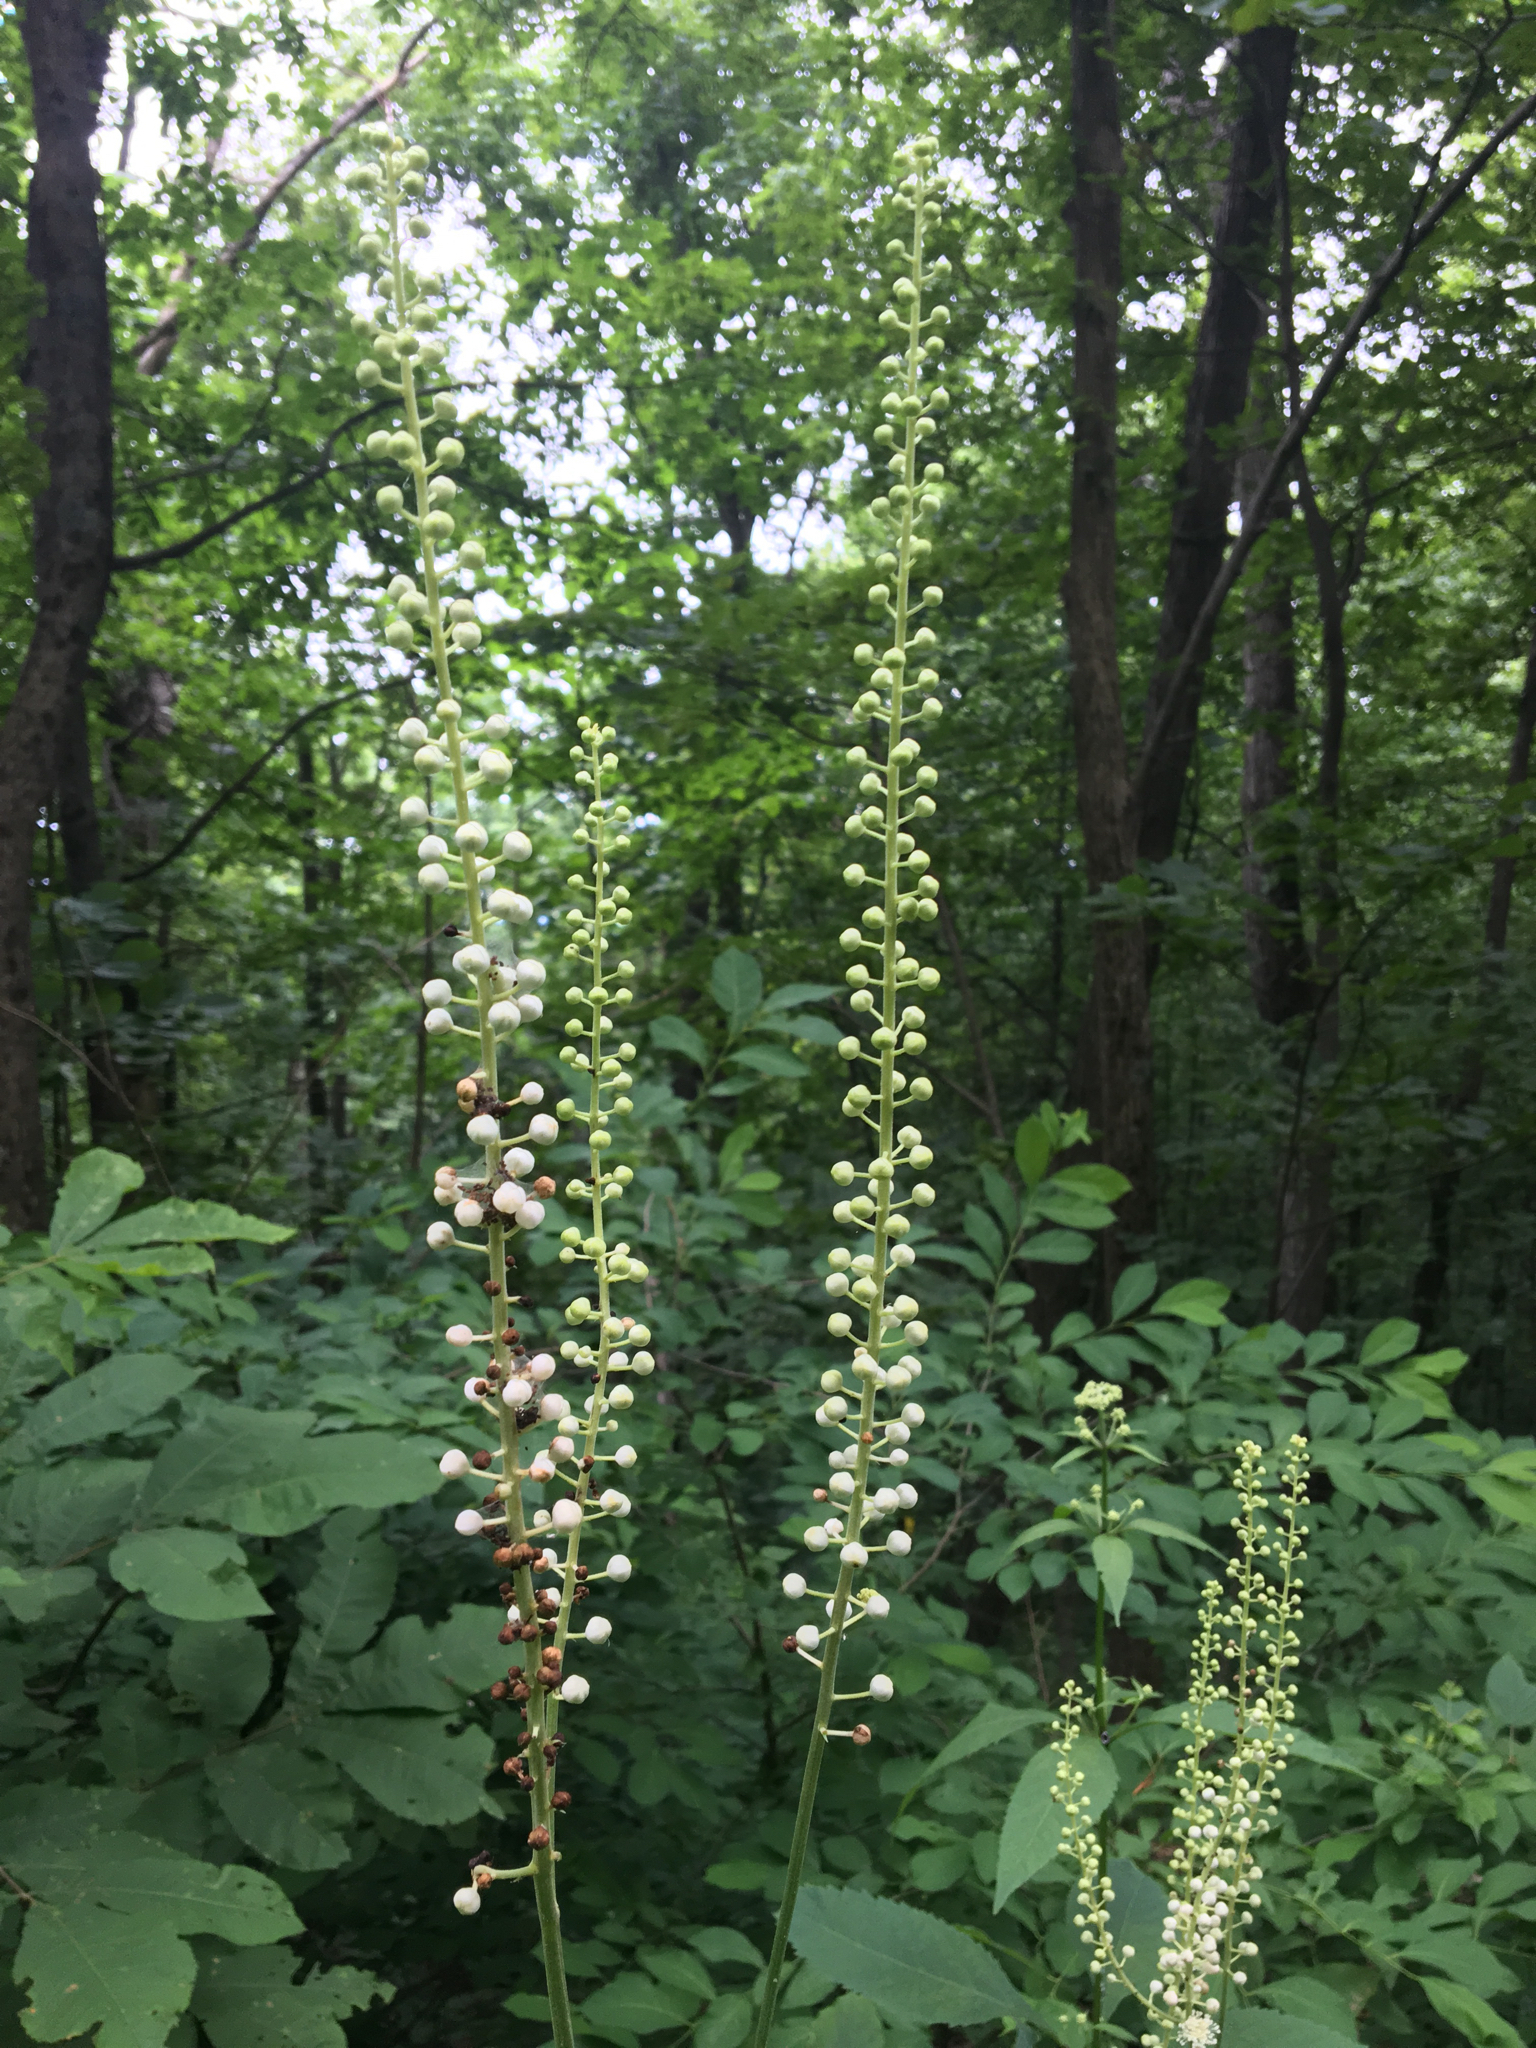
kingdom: Plantae
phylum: Tracheophyta
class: Magnoliopsida
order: Ranunculales
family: Ranunculaceae
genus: Actaea
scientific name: Actaea racemosa
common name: Black cohosh
